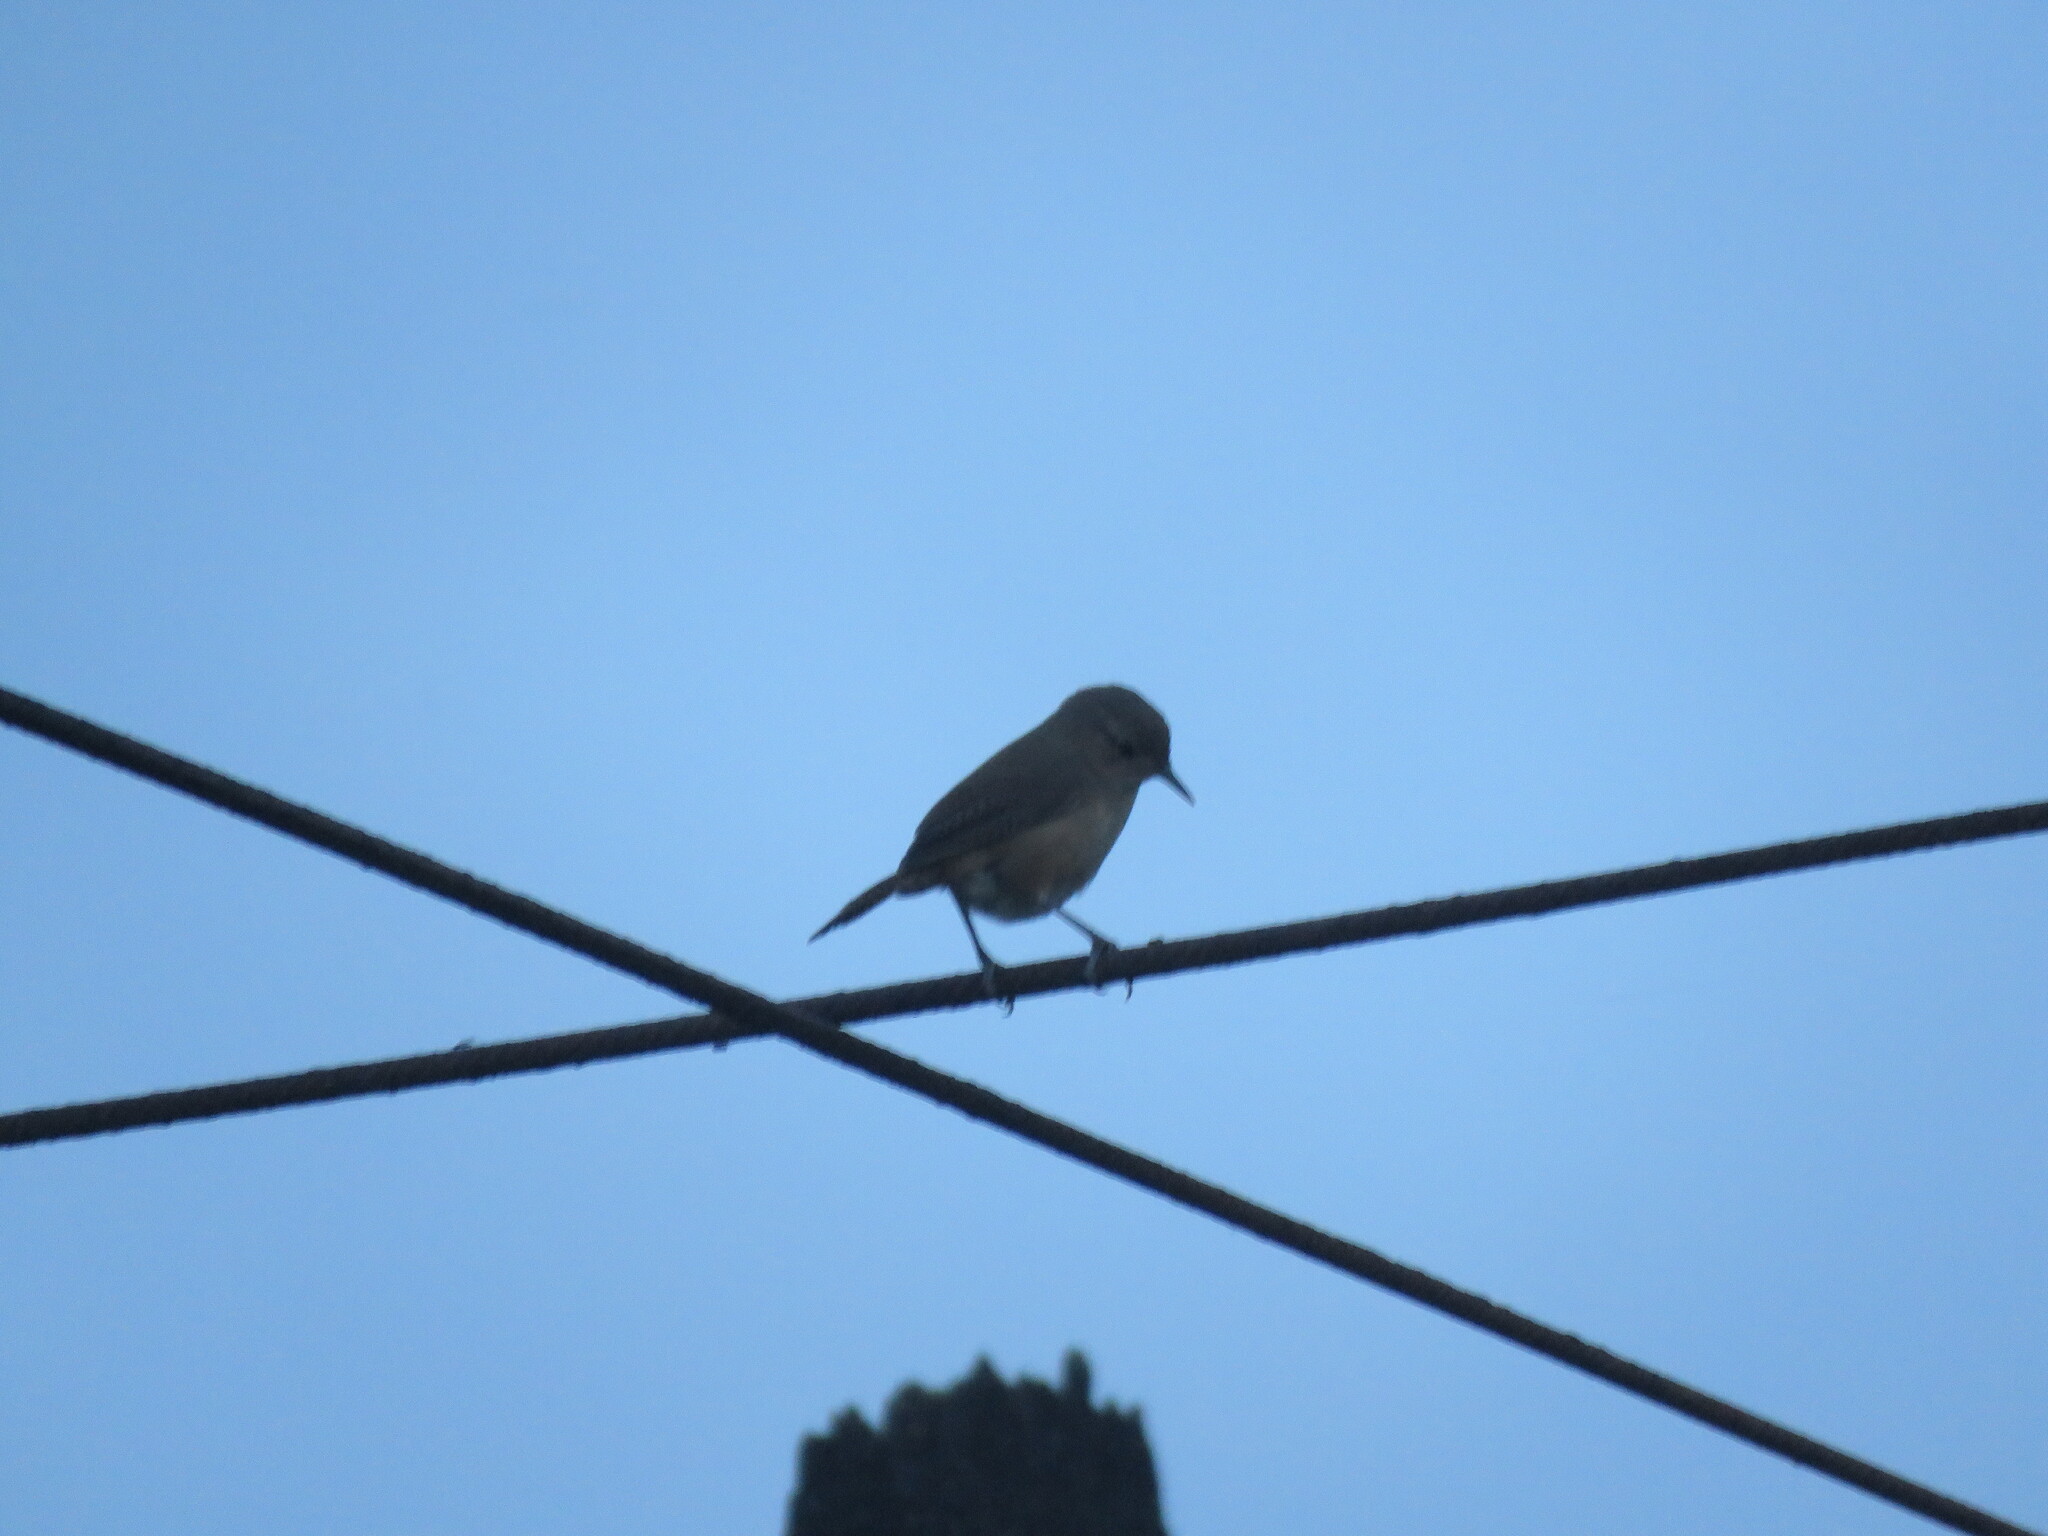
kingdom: Animalia
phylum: Chordata
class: Aves
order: Passeriformes
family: Troglodytidae
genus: Troglodytes
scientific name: Troglodytes aedon
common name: House wren
